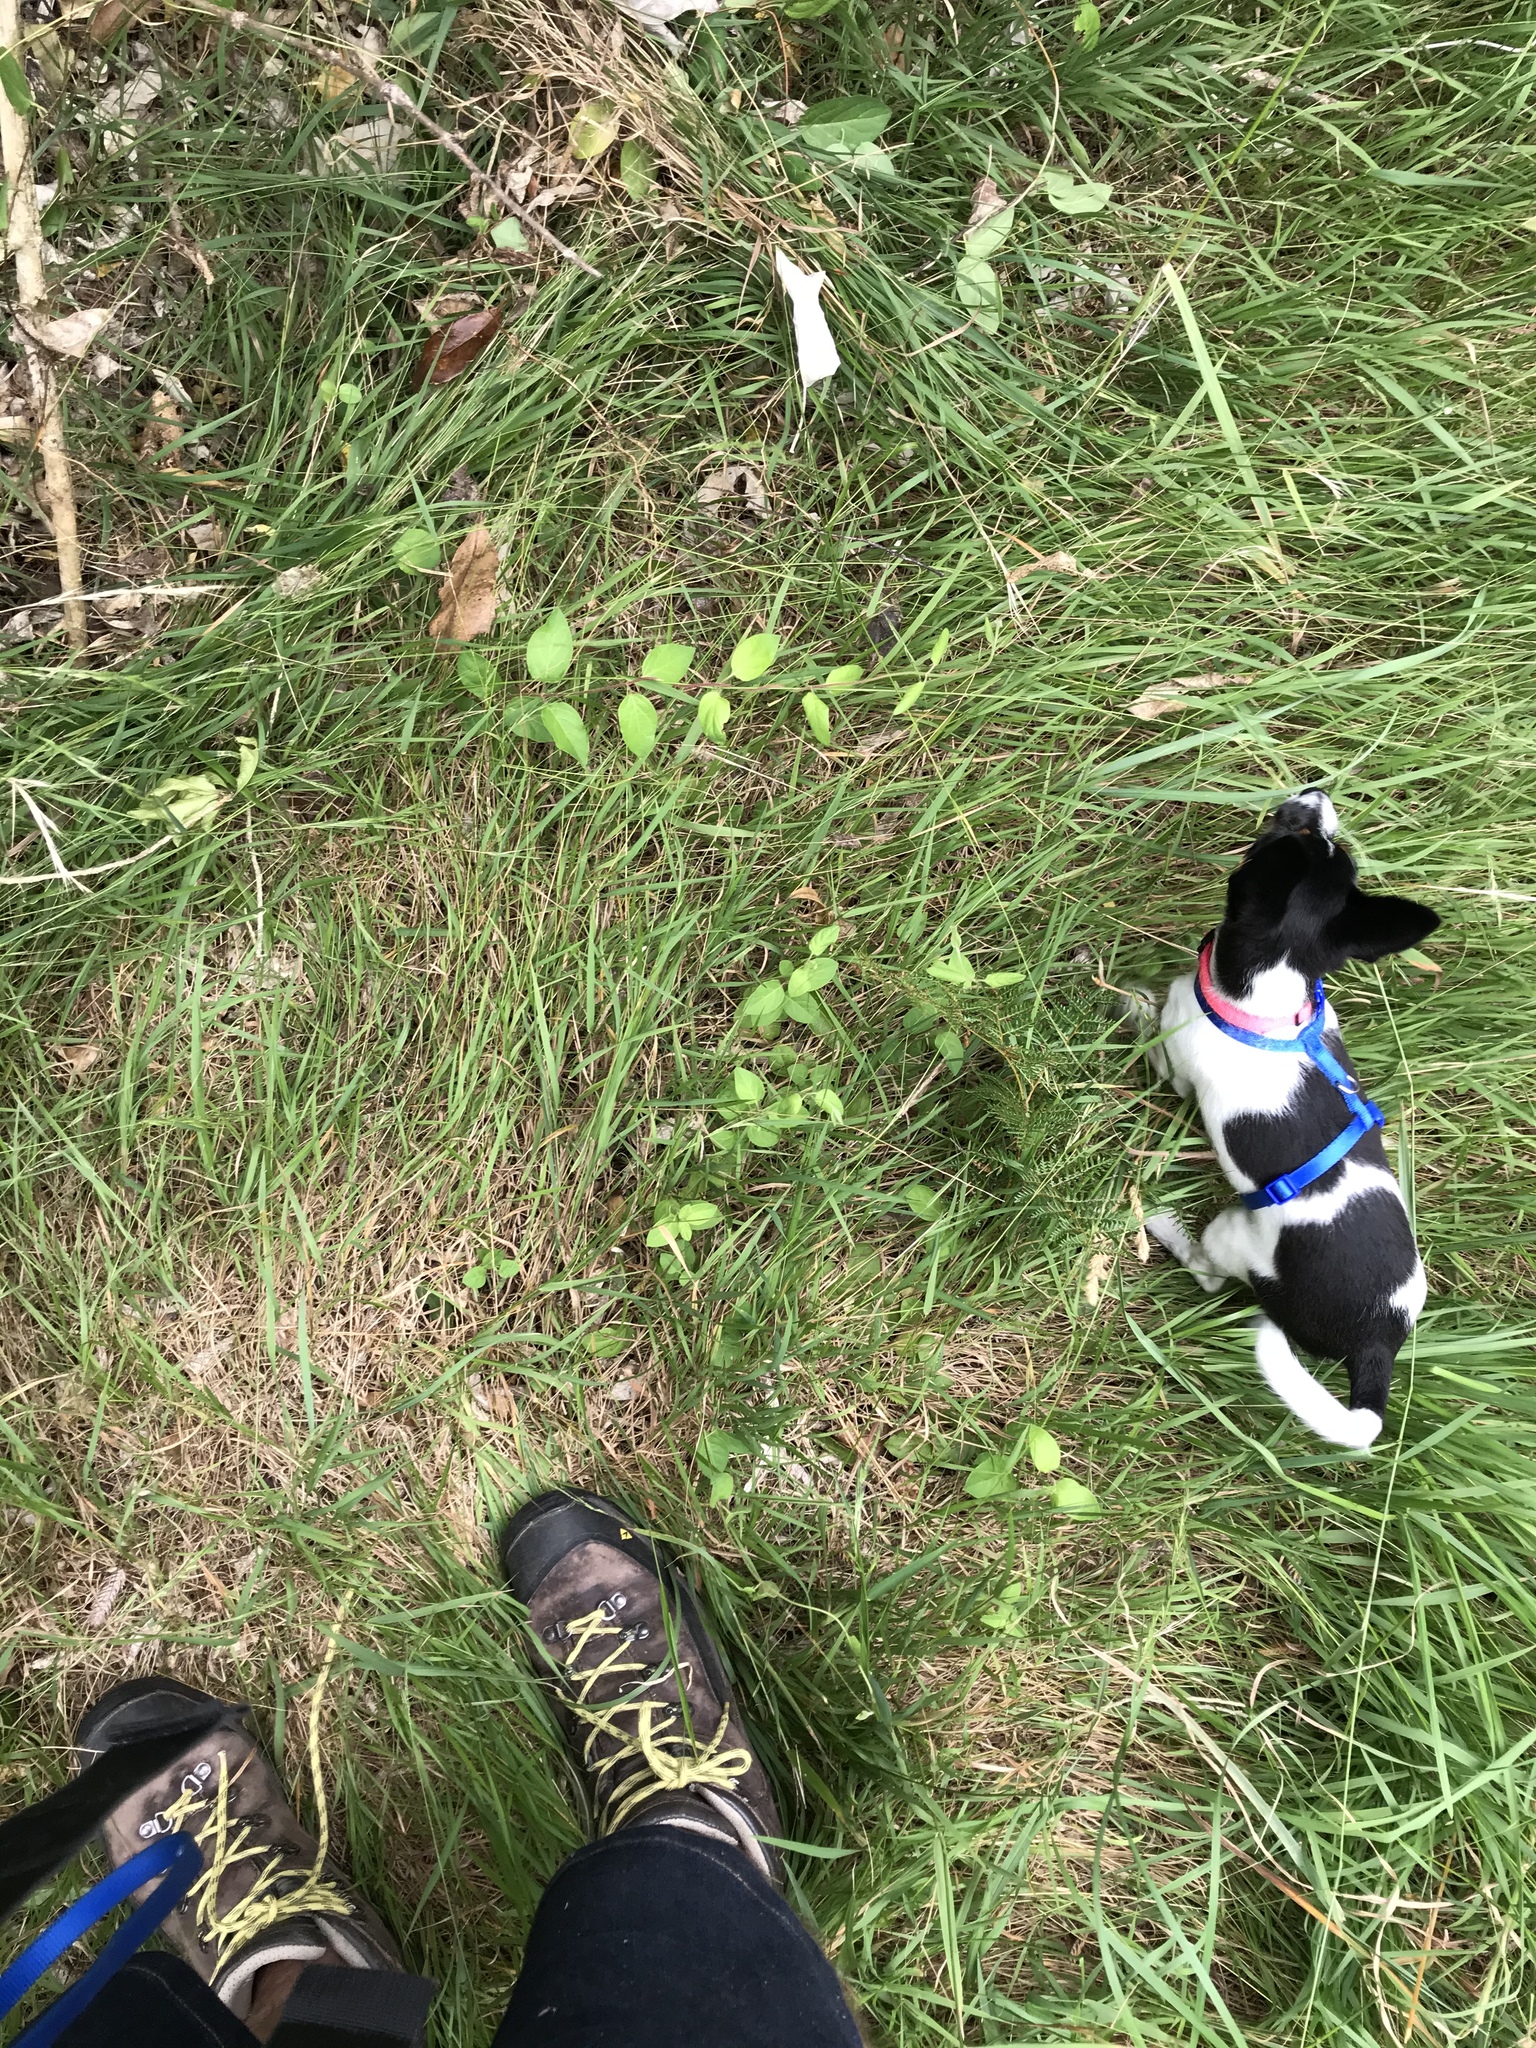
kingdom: Plantae
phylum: Tracheophyta
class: Magnoliopsida
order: Dipsacales
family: Caprifoliaceae
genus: Lonicera
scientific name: Lonicera japonica
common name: Japanese honeysuckle
